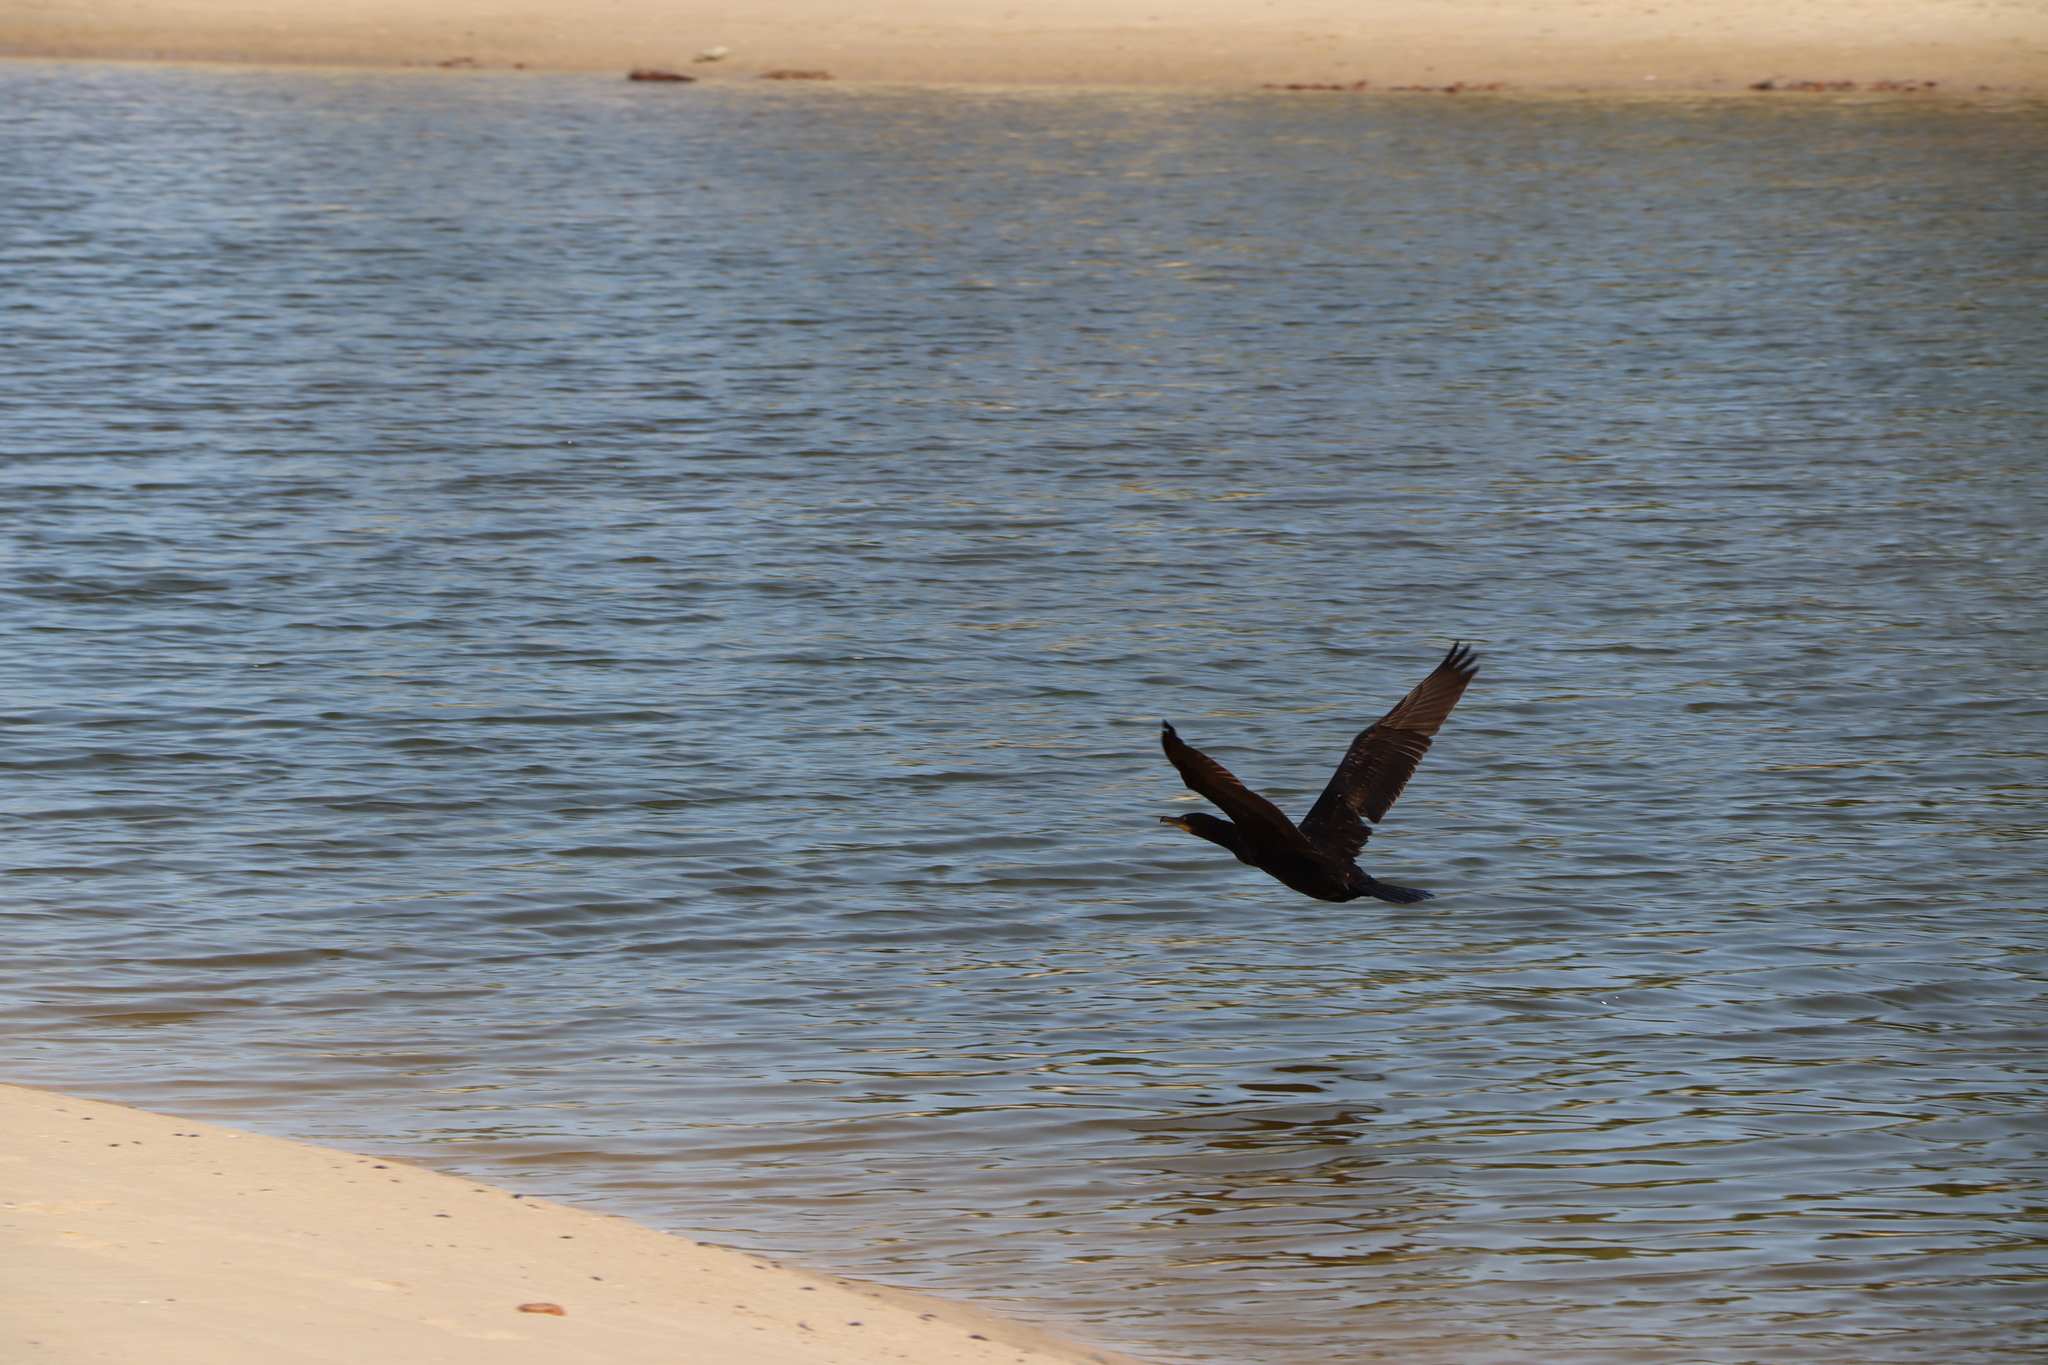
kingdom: Animalia
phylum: Chordata
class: Aves
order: Suliformes
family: Phalacrocoracidae
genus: Phalacrocorax
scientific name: Phalacrocorax brasilianus
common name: Neotropic cormorant
